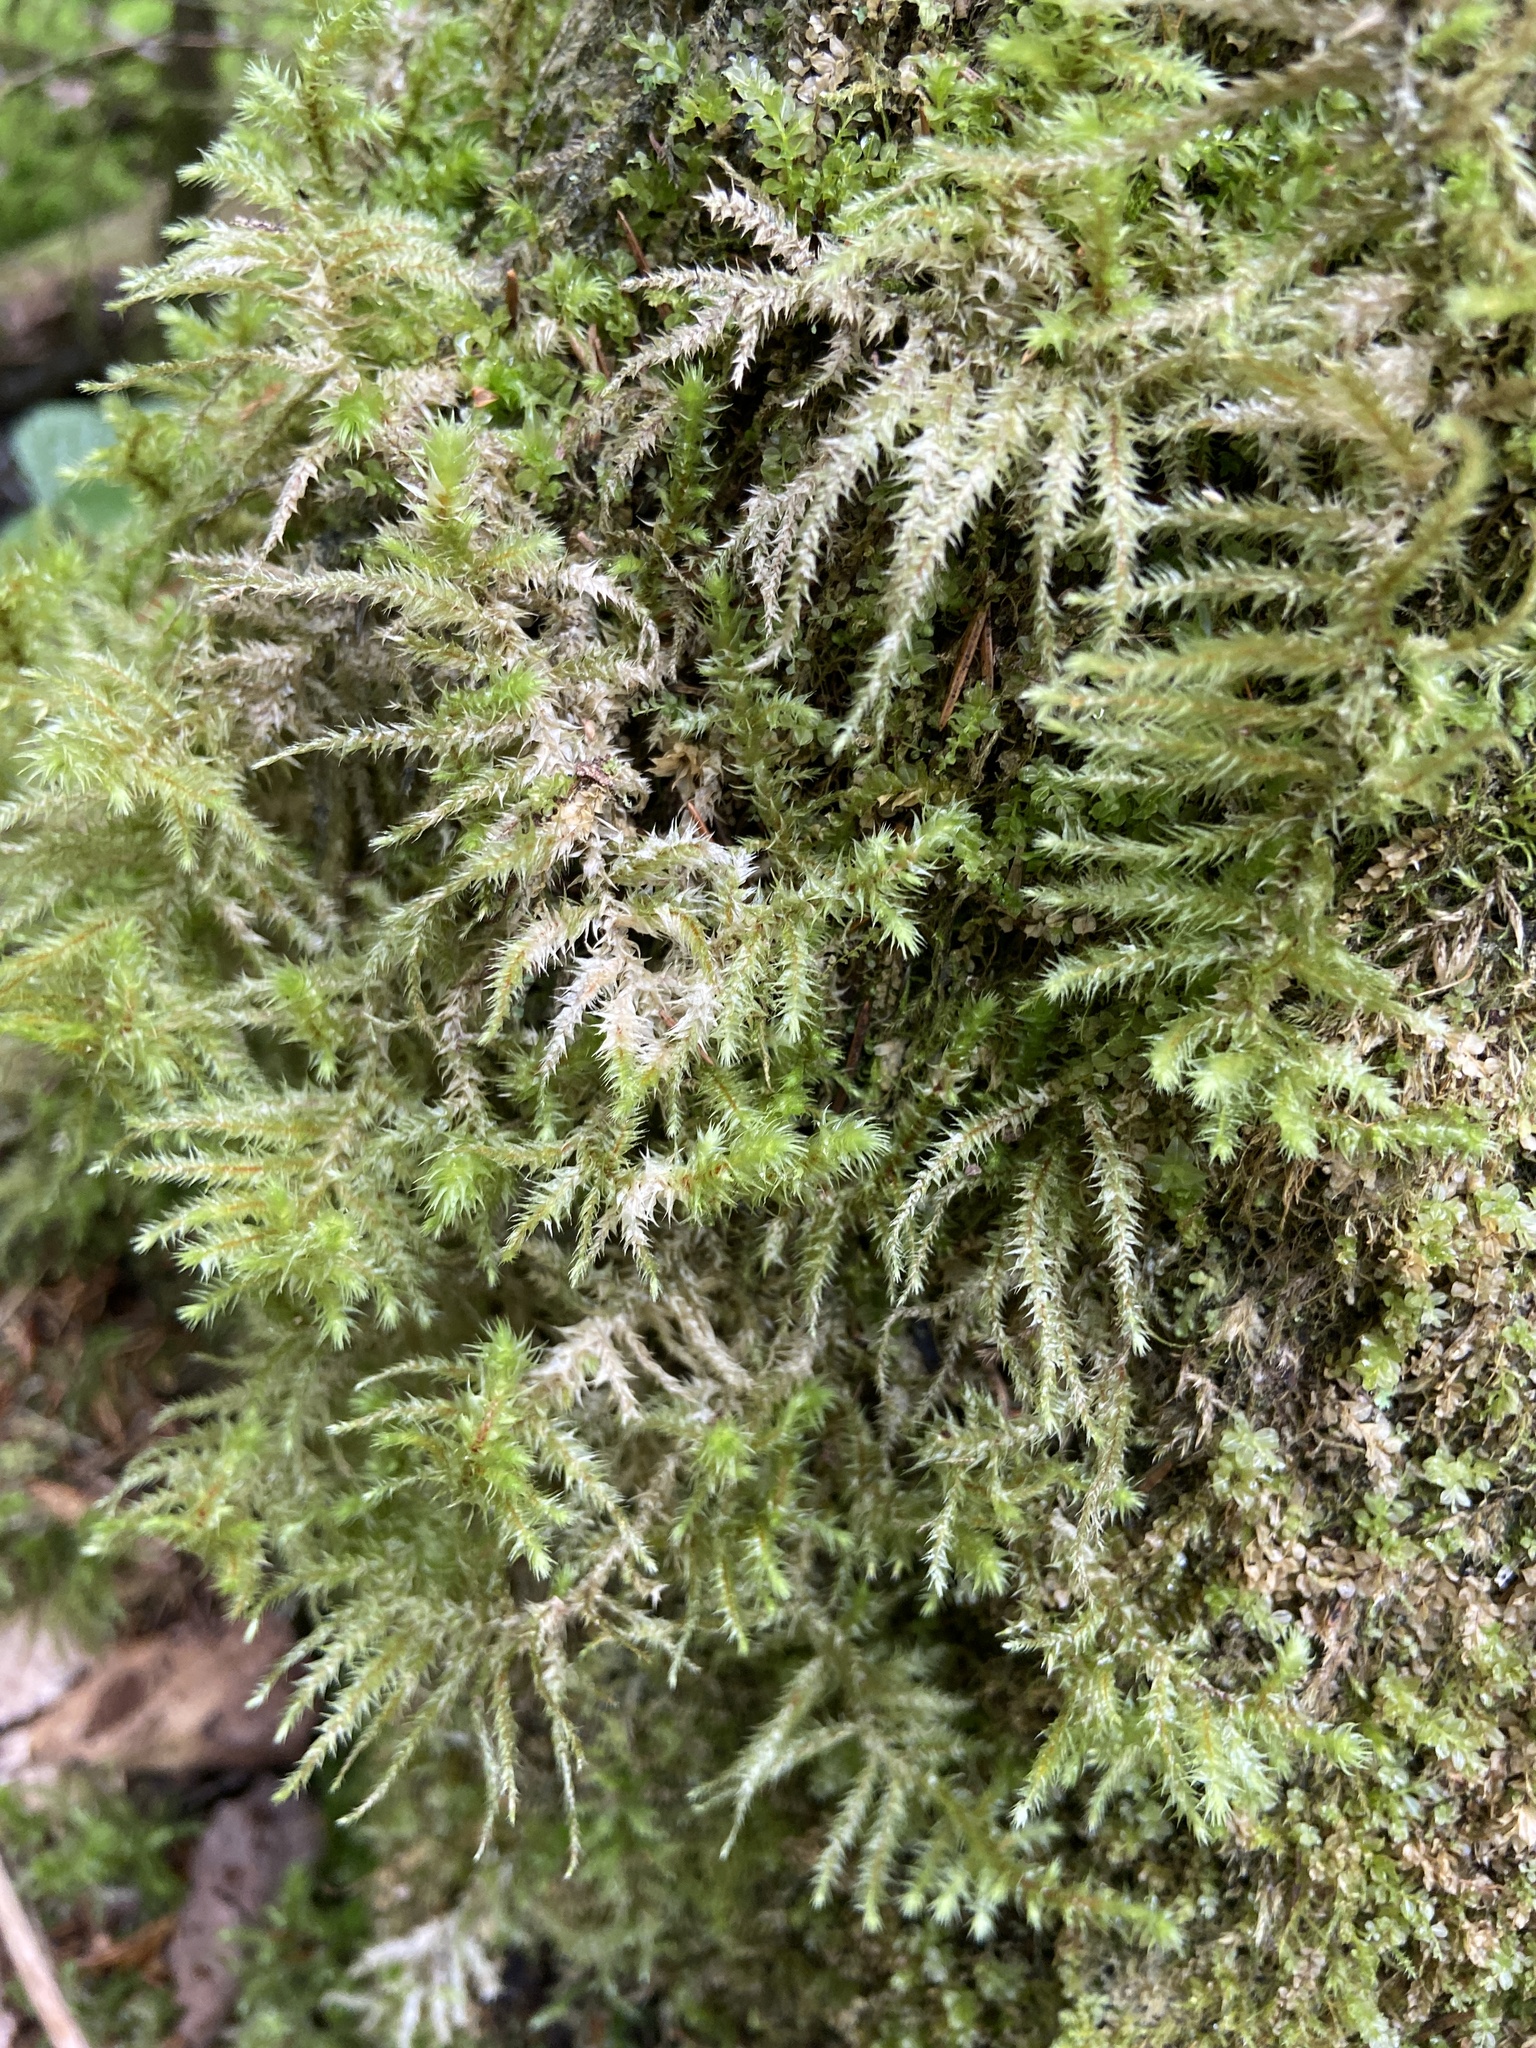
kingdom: Plantae
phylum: Bryophyta
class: Bryopsida
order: Hypnales
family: Hylocomiaceae
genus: Hylocomiadelphus
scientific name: Hylocomiadelphus triquetrus
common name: Rough goose neck moss
